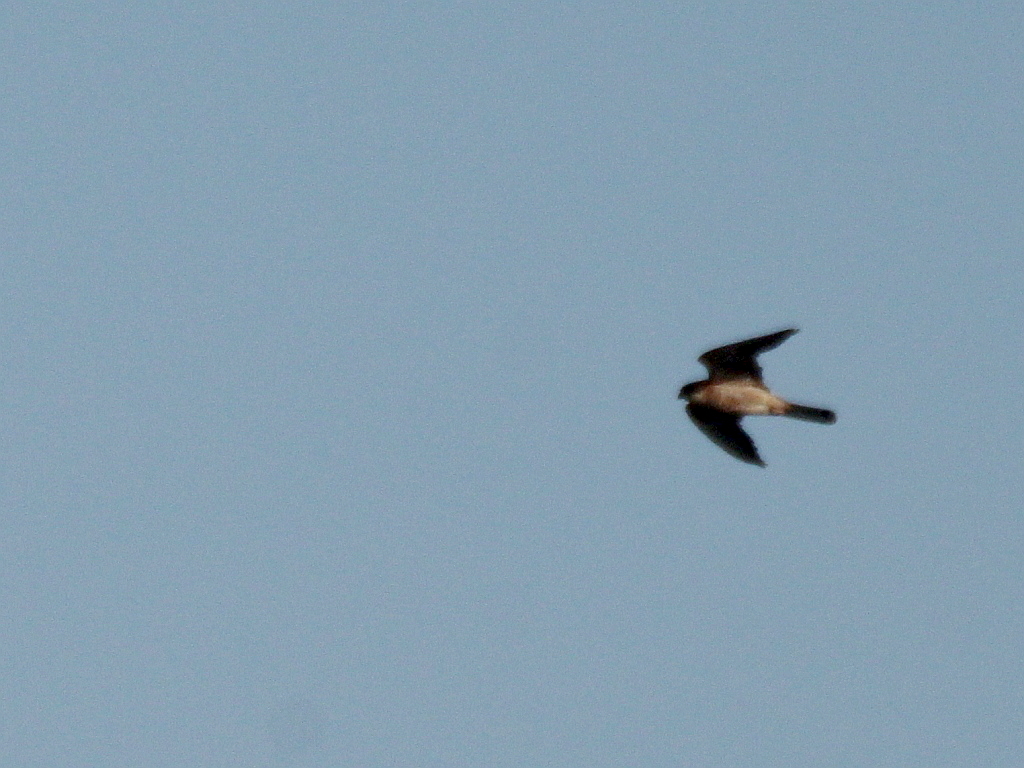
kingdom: Animalia
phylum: Chordata
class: Aves
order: Falconiformes
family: Falconidae
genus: Falco
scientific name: Falco vespertinus
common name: Red-footed falcon
